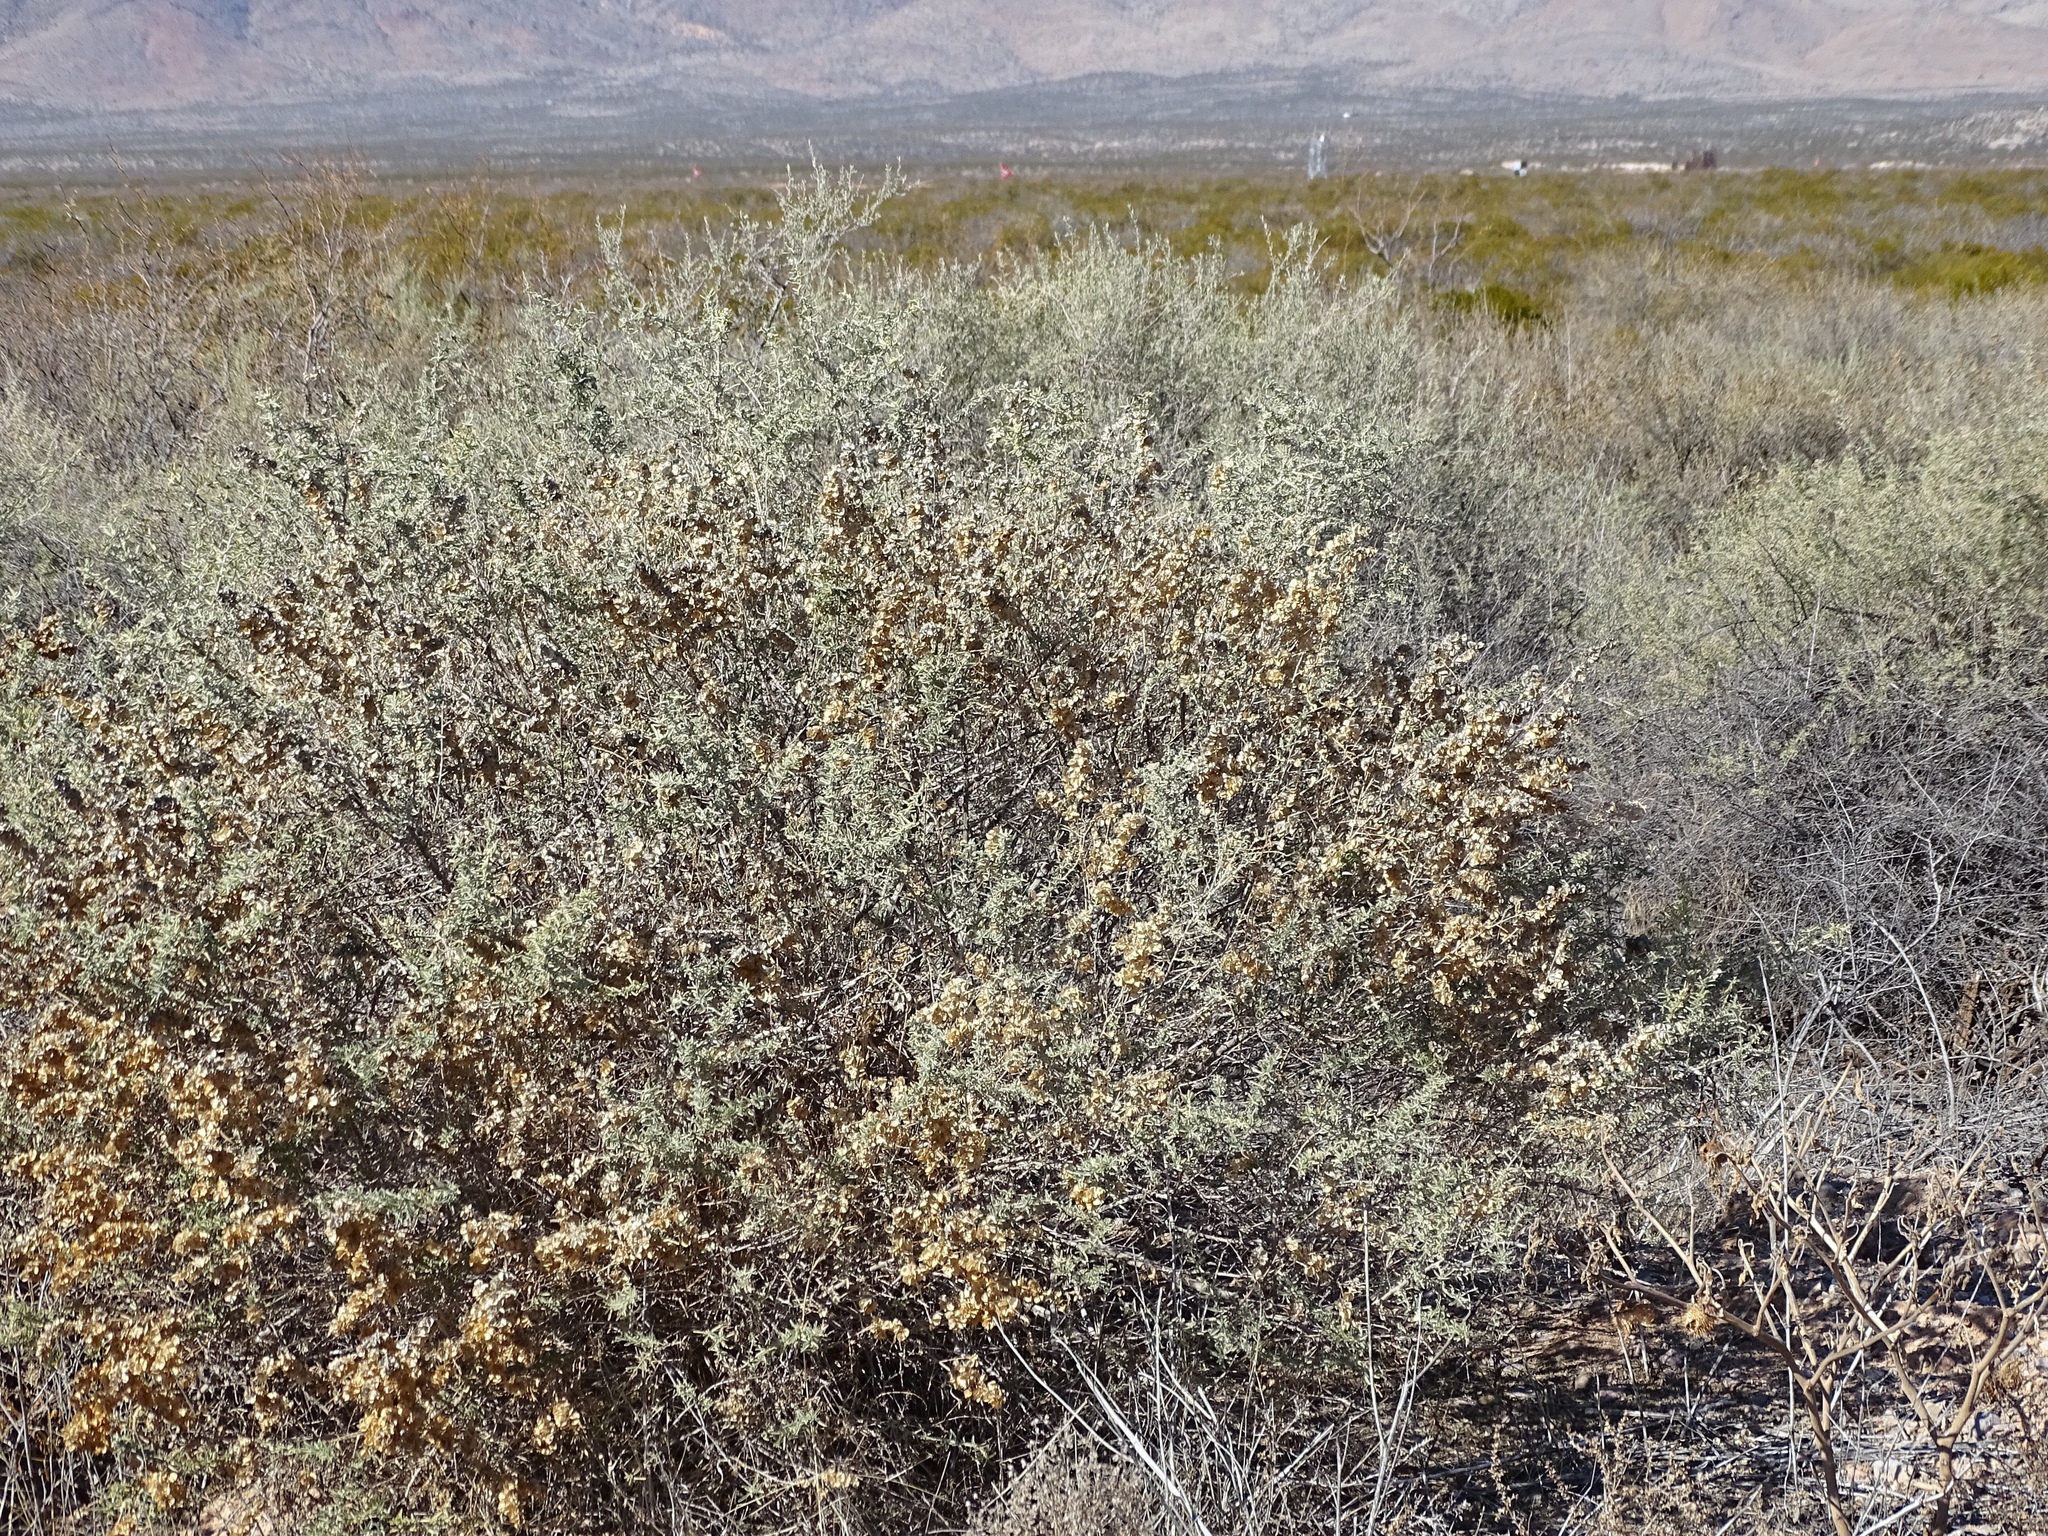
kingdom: Plantae
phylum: Tracheophyta
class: Magnoliopsida
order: Caryophyllales
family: Amaranthaceae
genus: Atriplex
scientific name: Atriplex canescens
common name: Four-wing saltbush
